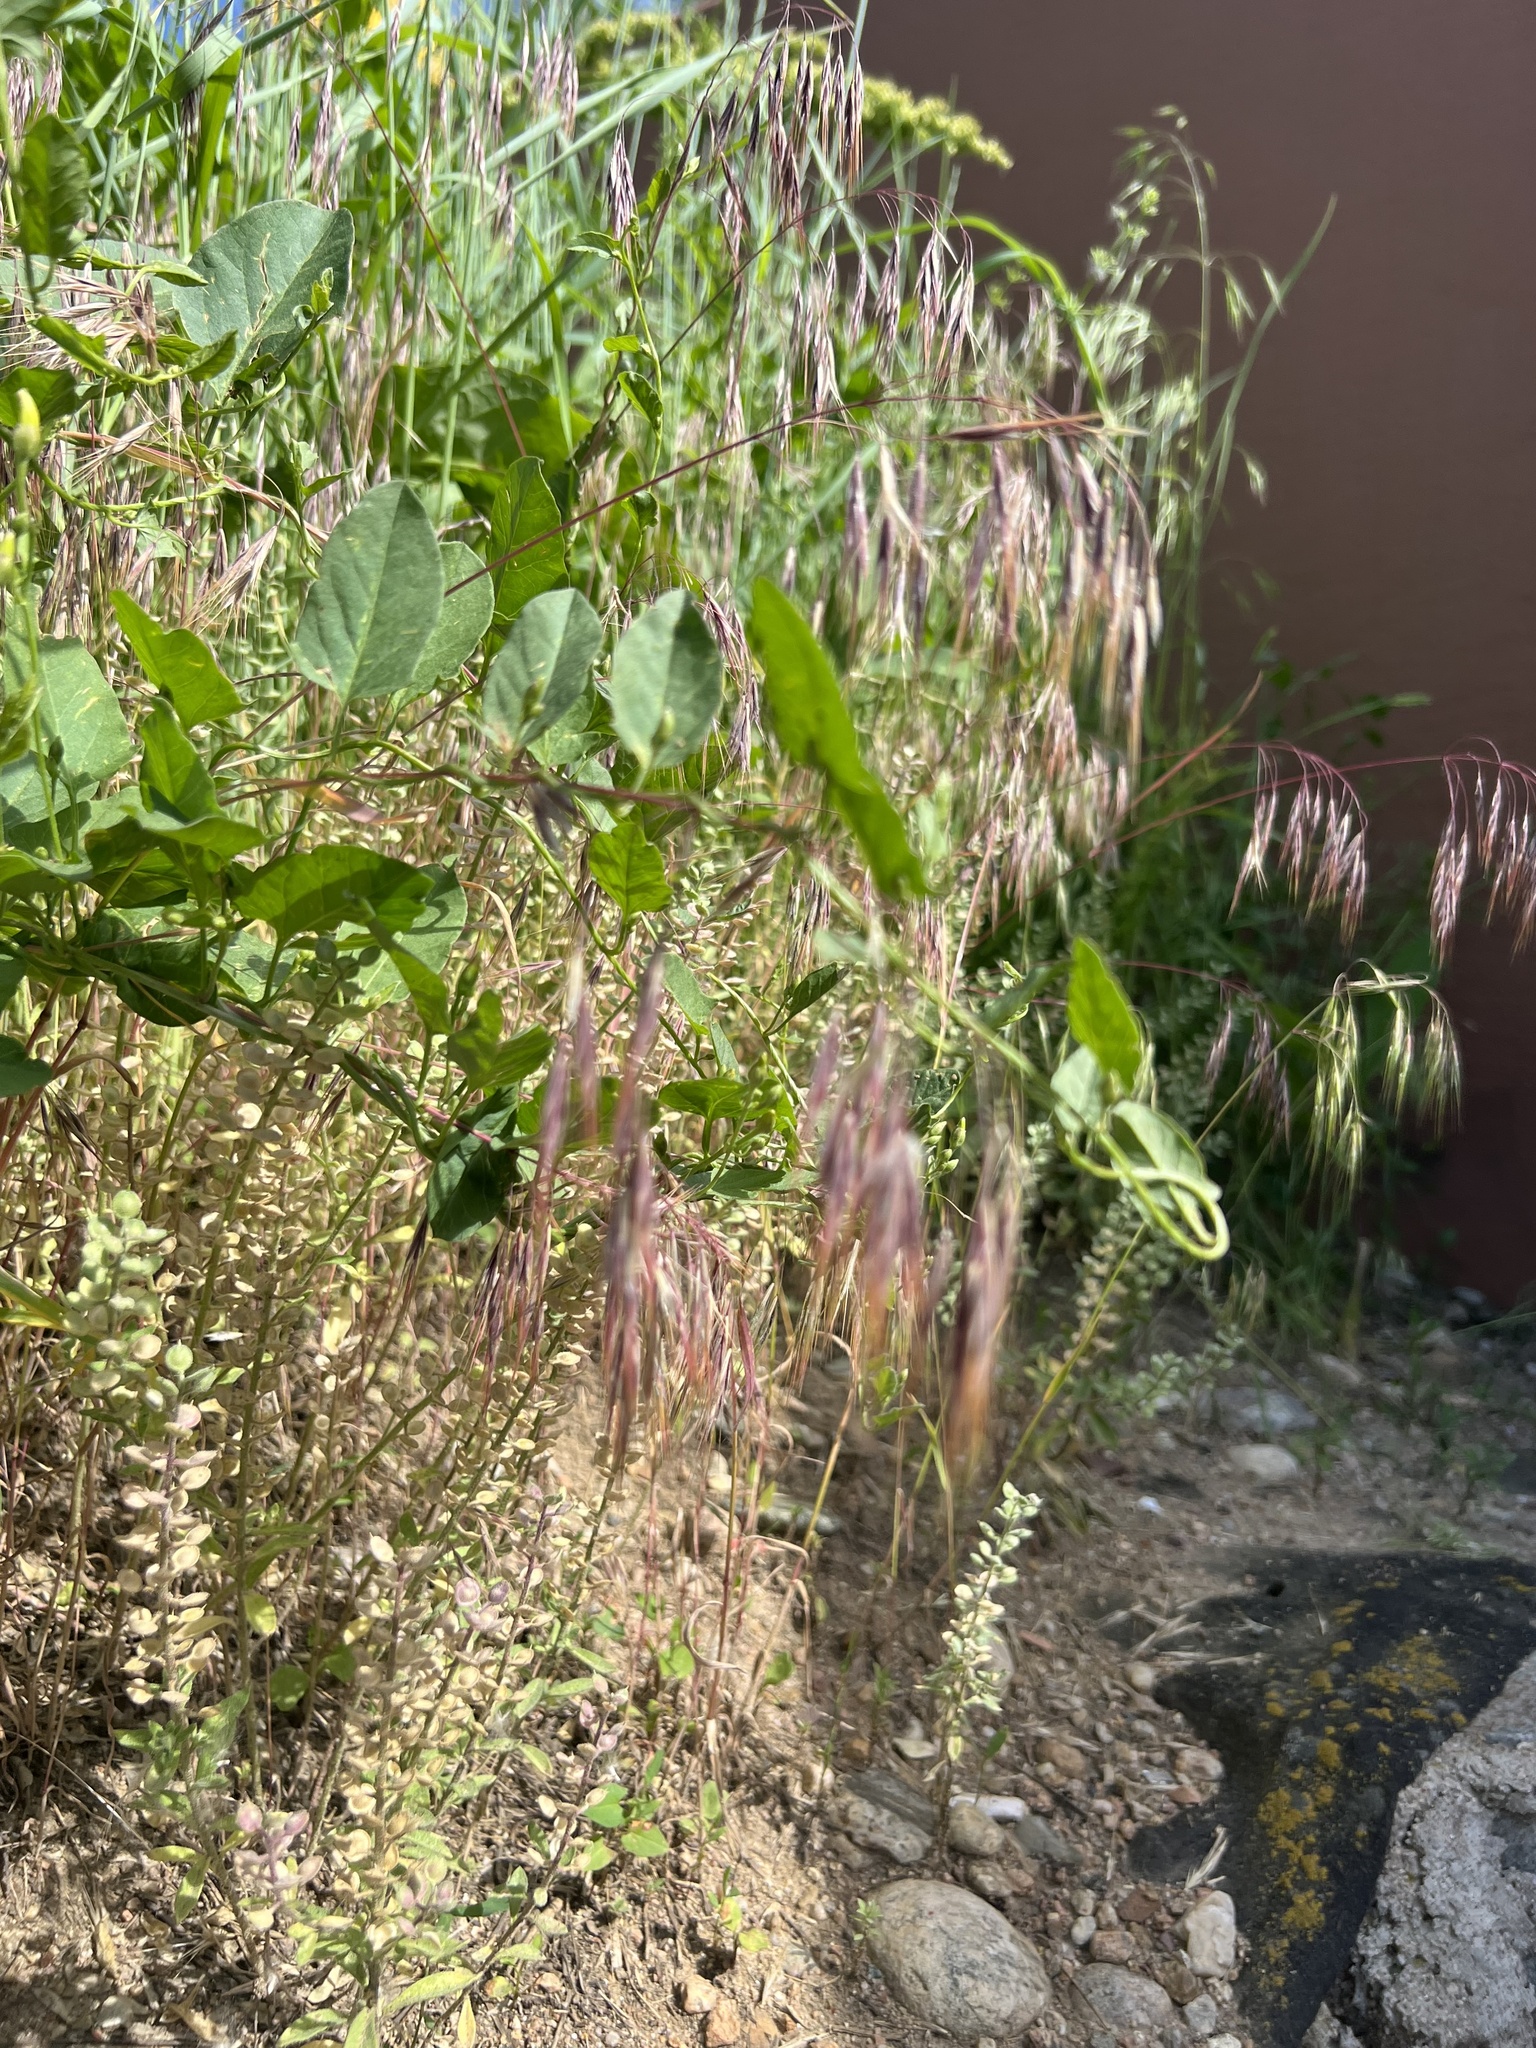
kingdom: Plantae
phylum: Tracheophyta
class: Liliopsida
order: Poales
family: Poaceae
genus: Bromus
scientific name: Bromus tectorum
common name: Cheatgrass
